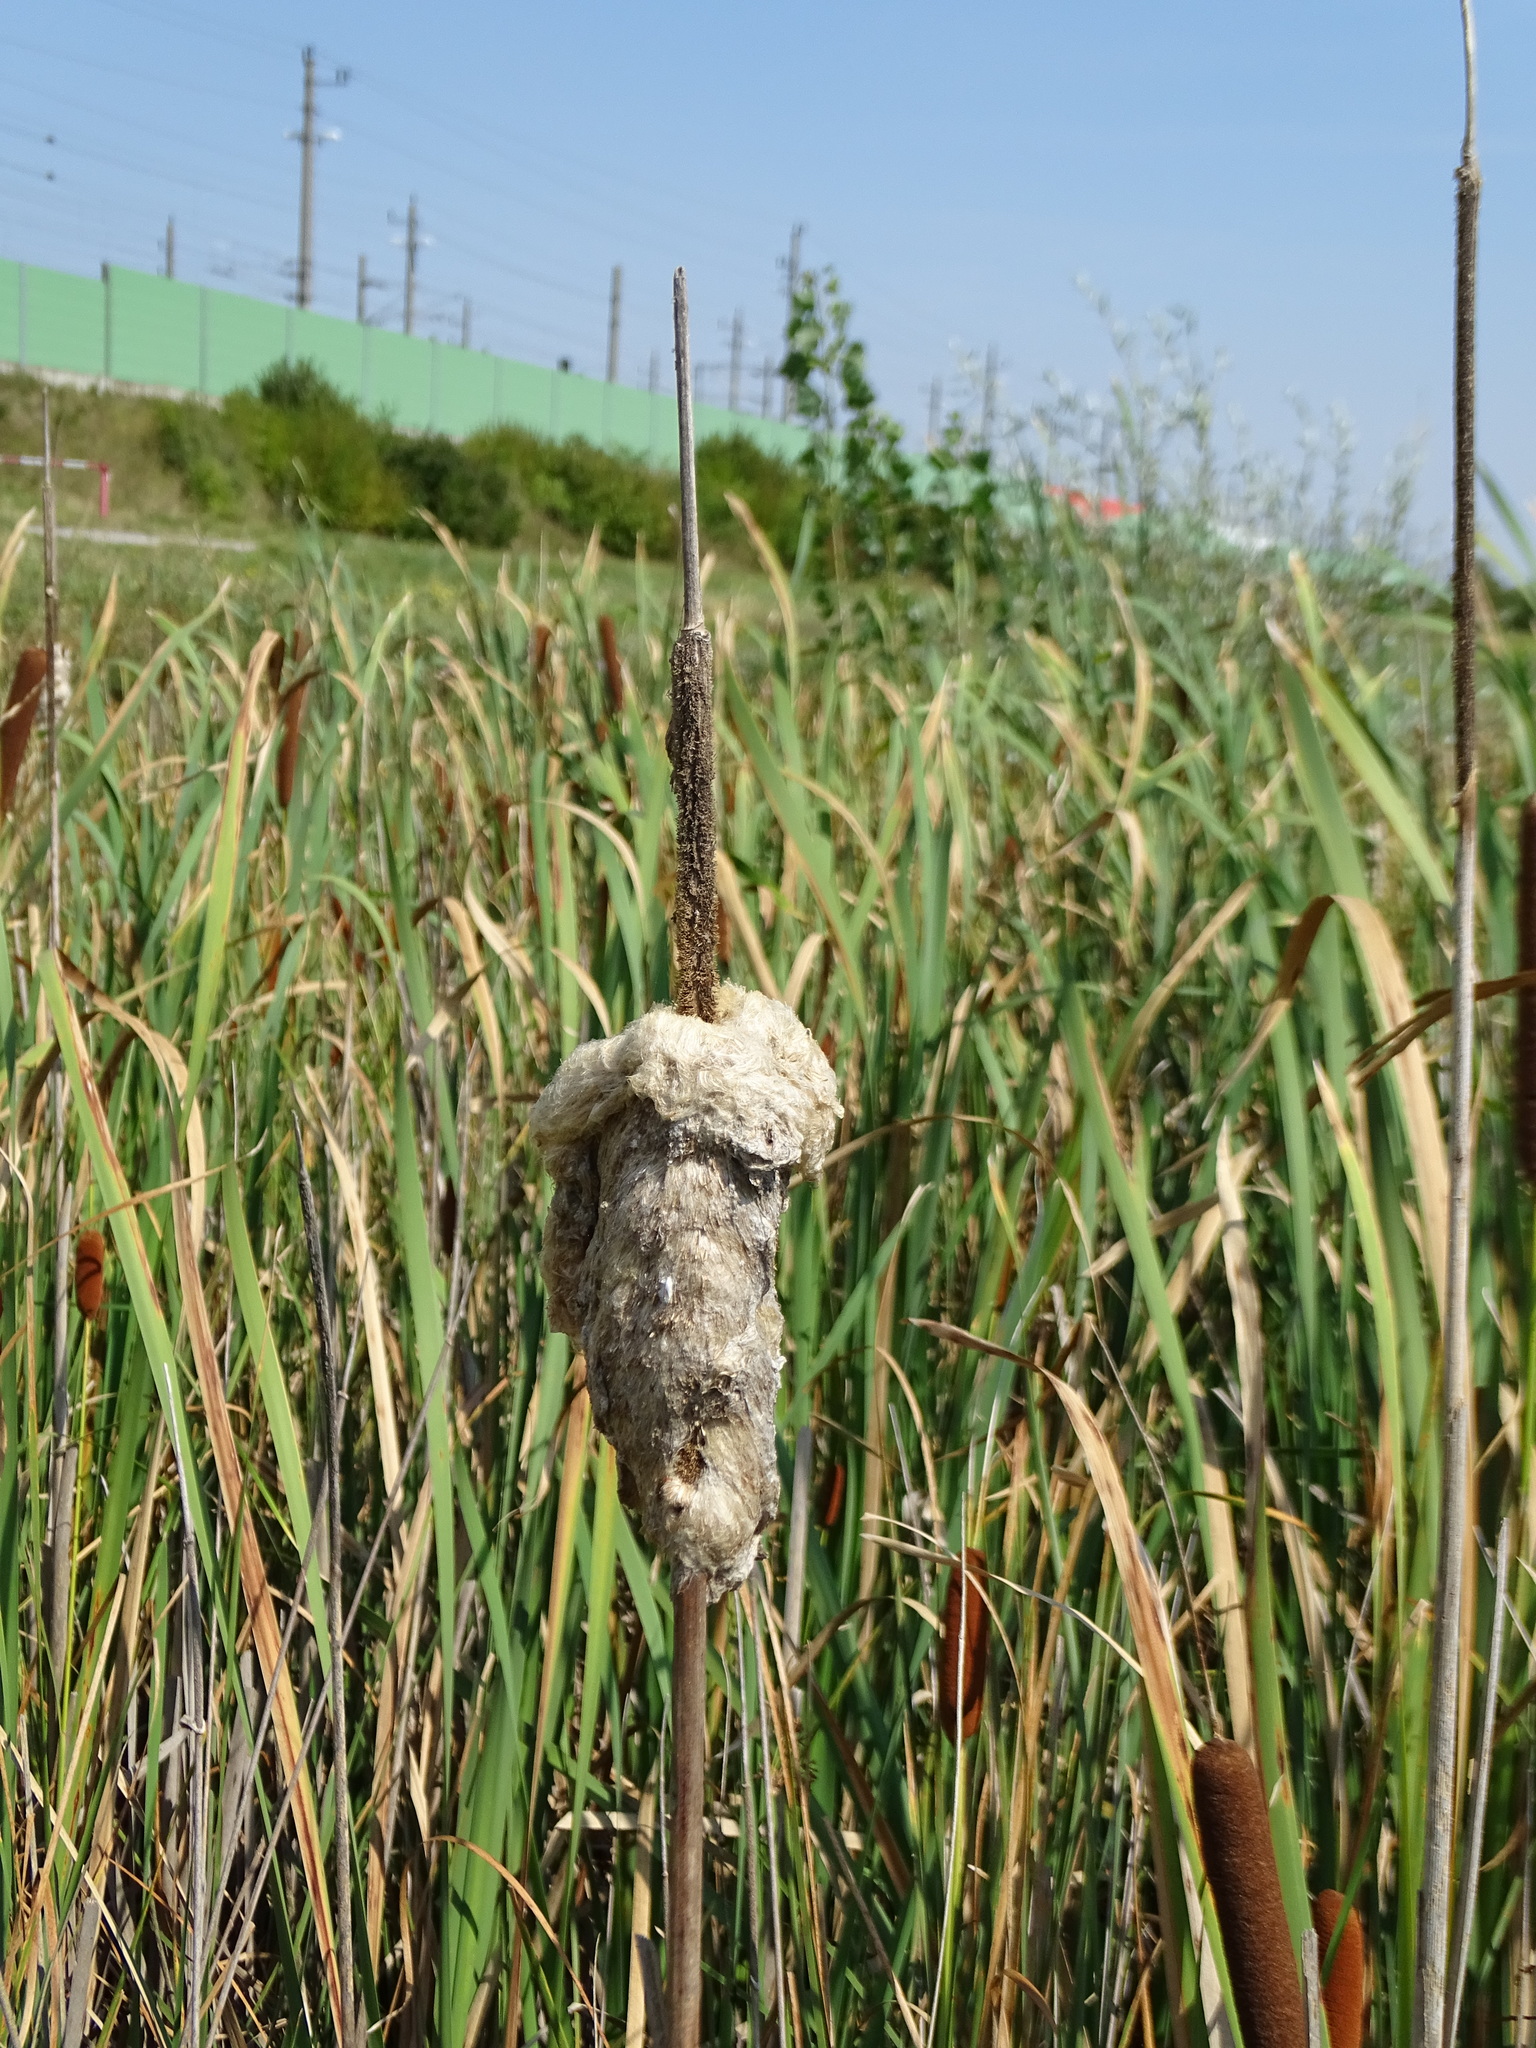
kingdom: Plantae
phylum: Tracheophyta
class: Liliopsida
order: Poales
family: Typhaceae
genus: Typha
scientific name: Typha latifolia
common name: Broadleaf cattail
